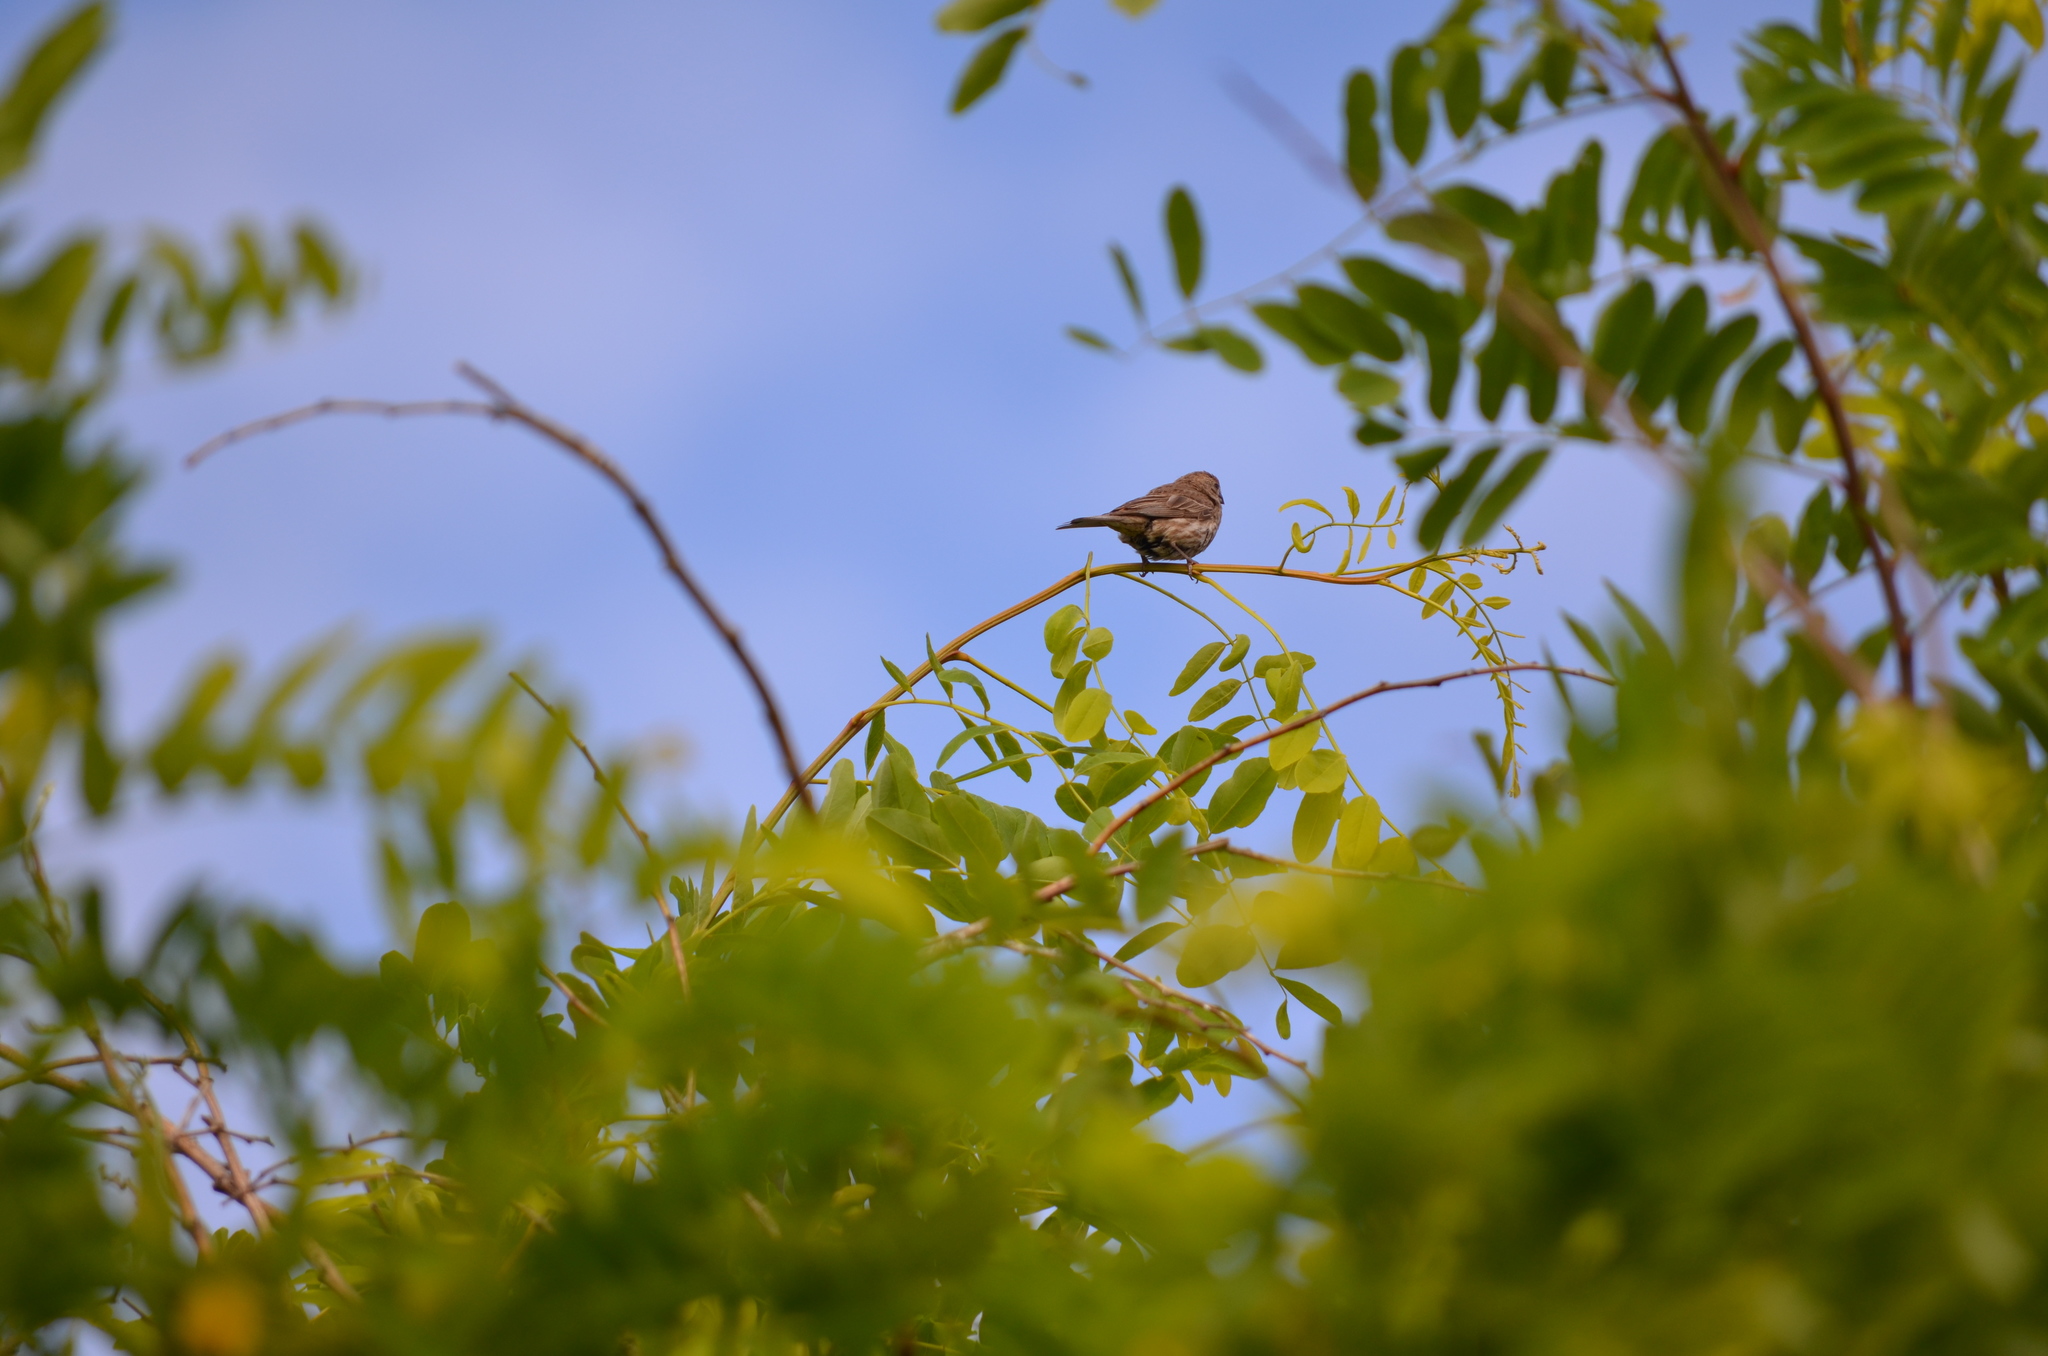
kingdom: Animalia
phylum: Chordata
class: Aves
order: Passeriformes
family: Fringillidae
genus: Haemorhous
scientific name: Haemorhous mexicanus
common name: House finch
